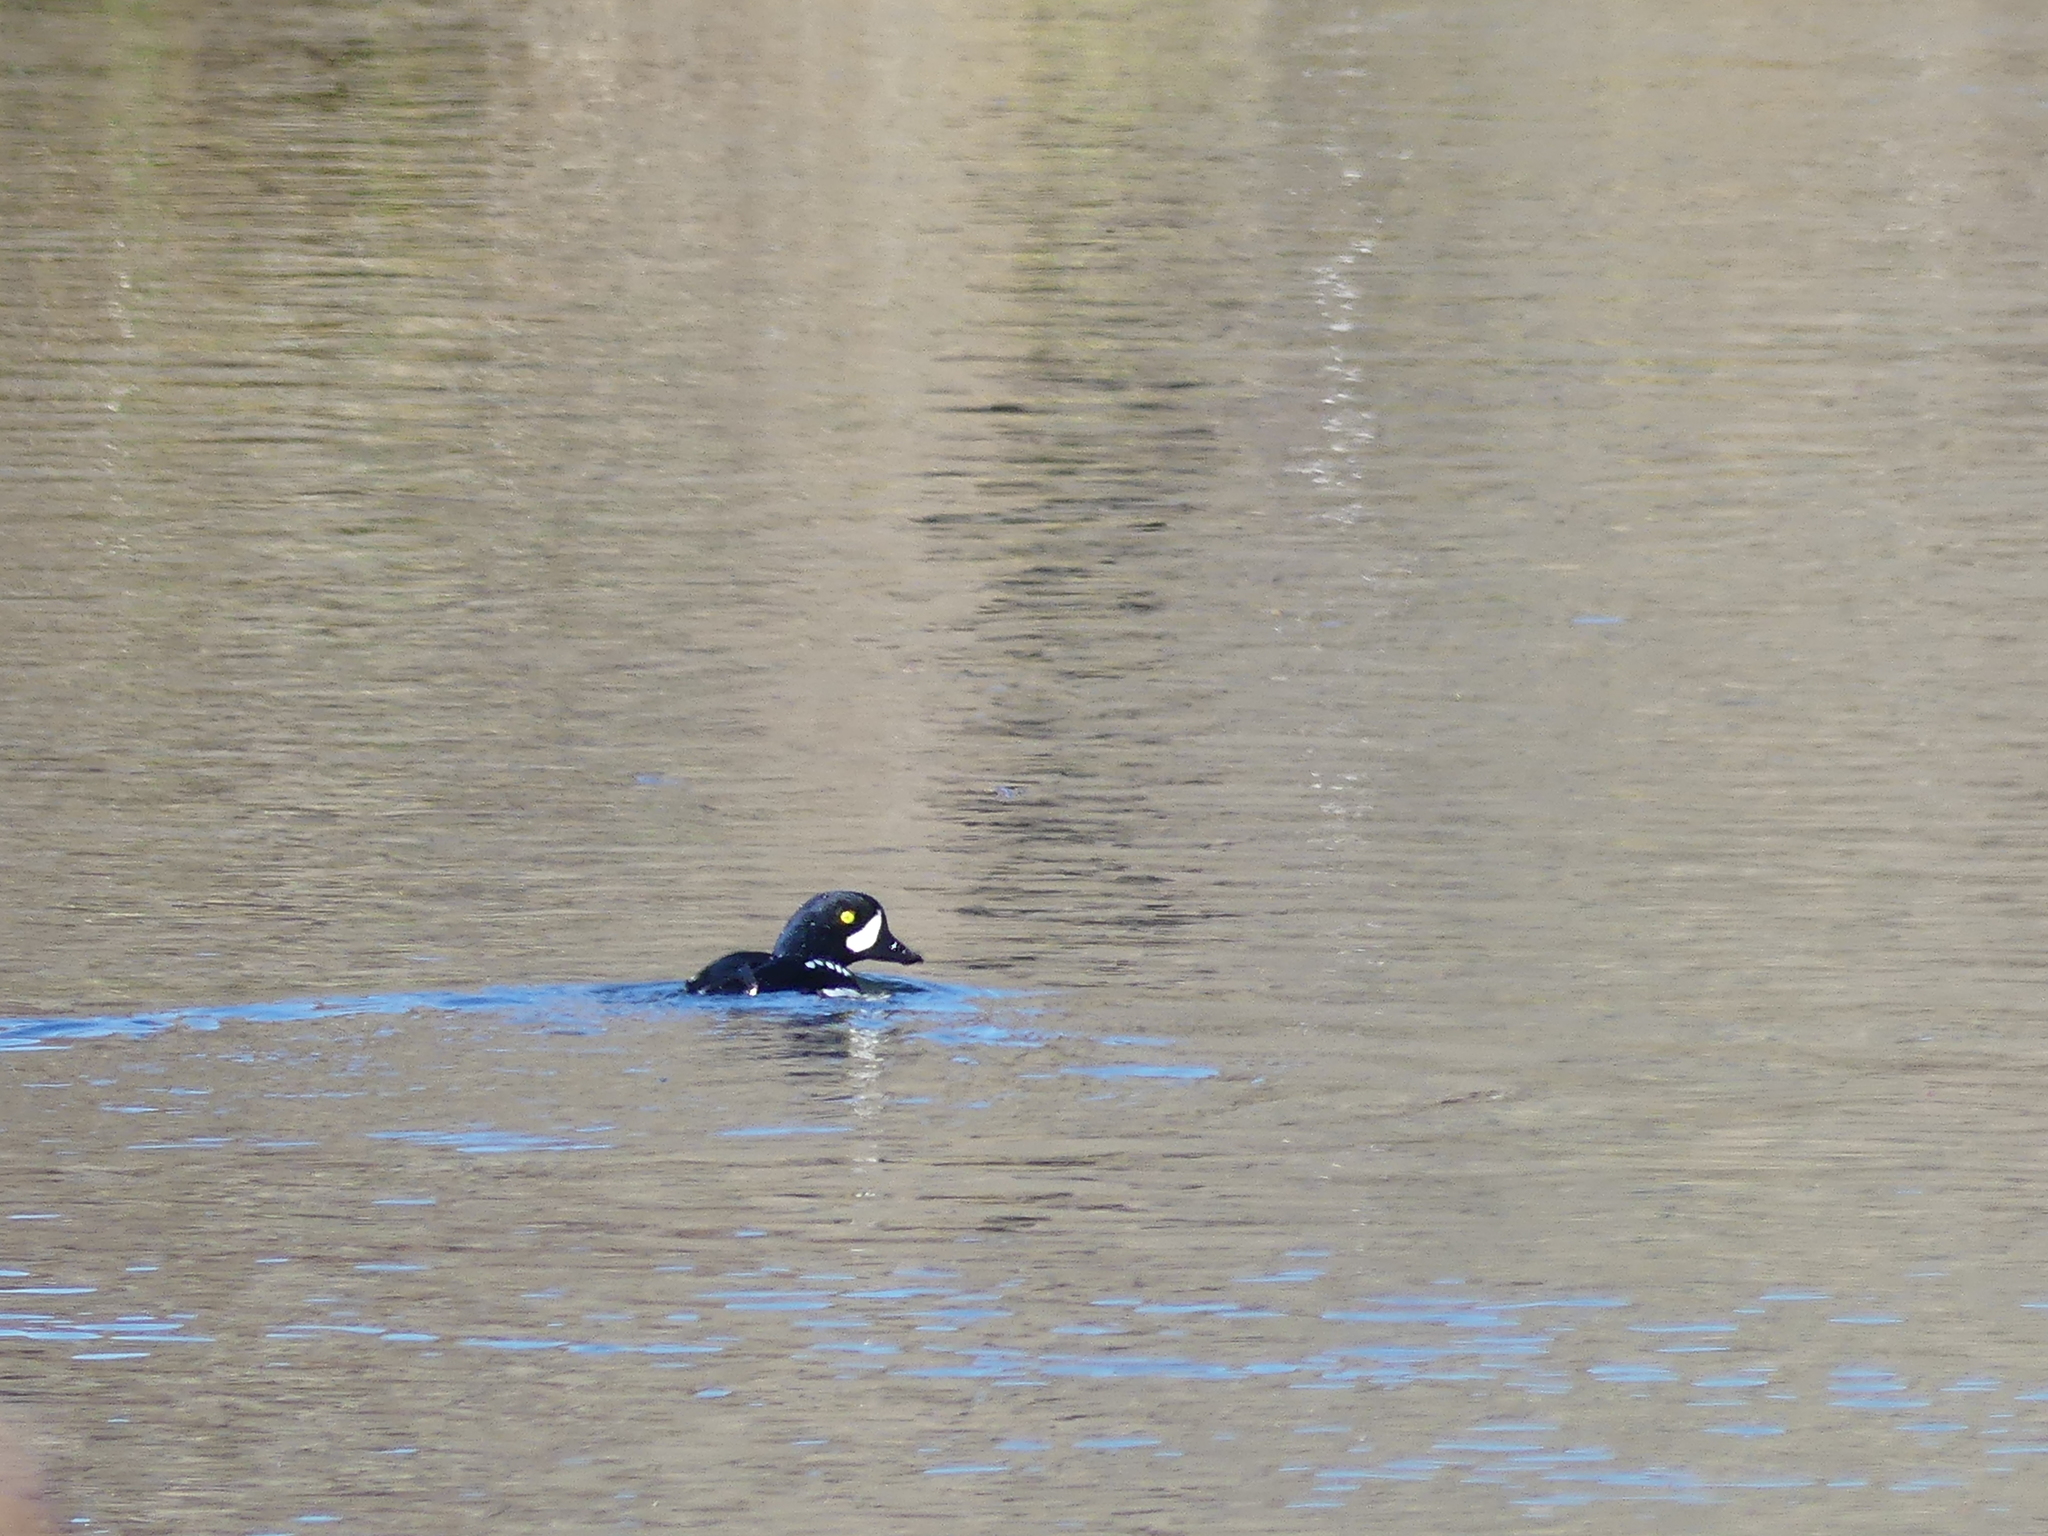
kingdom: Animalia
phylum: Chordata
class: Aves
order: Anseriformes
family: Anatidae
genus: Bucephala
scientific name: Bucephala islandica
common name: Barrow's goldeneye
